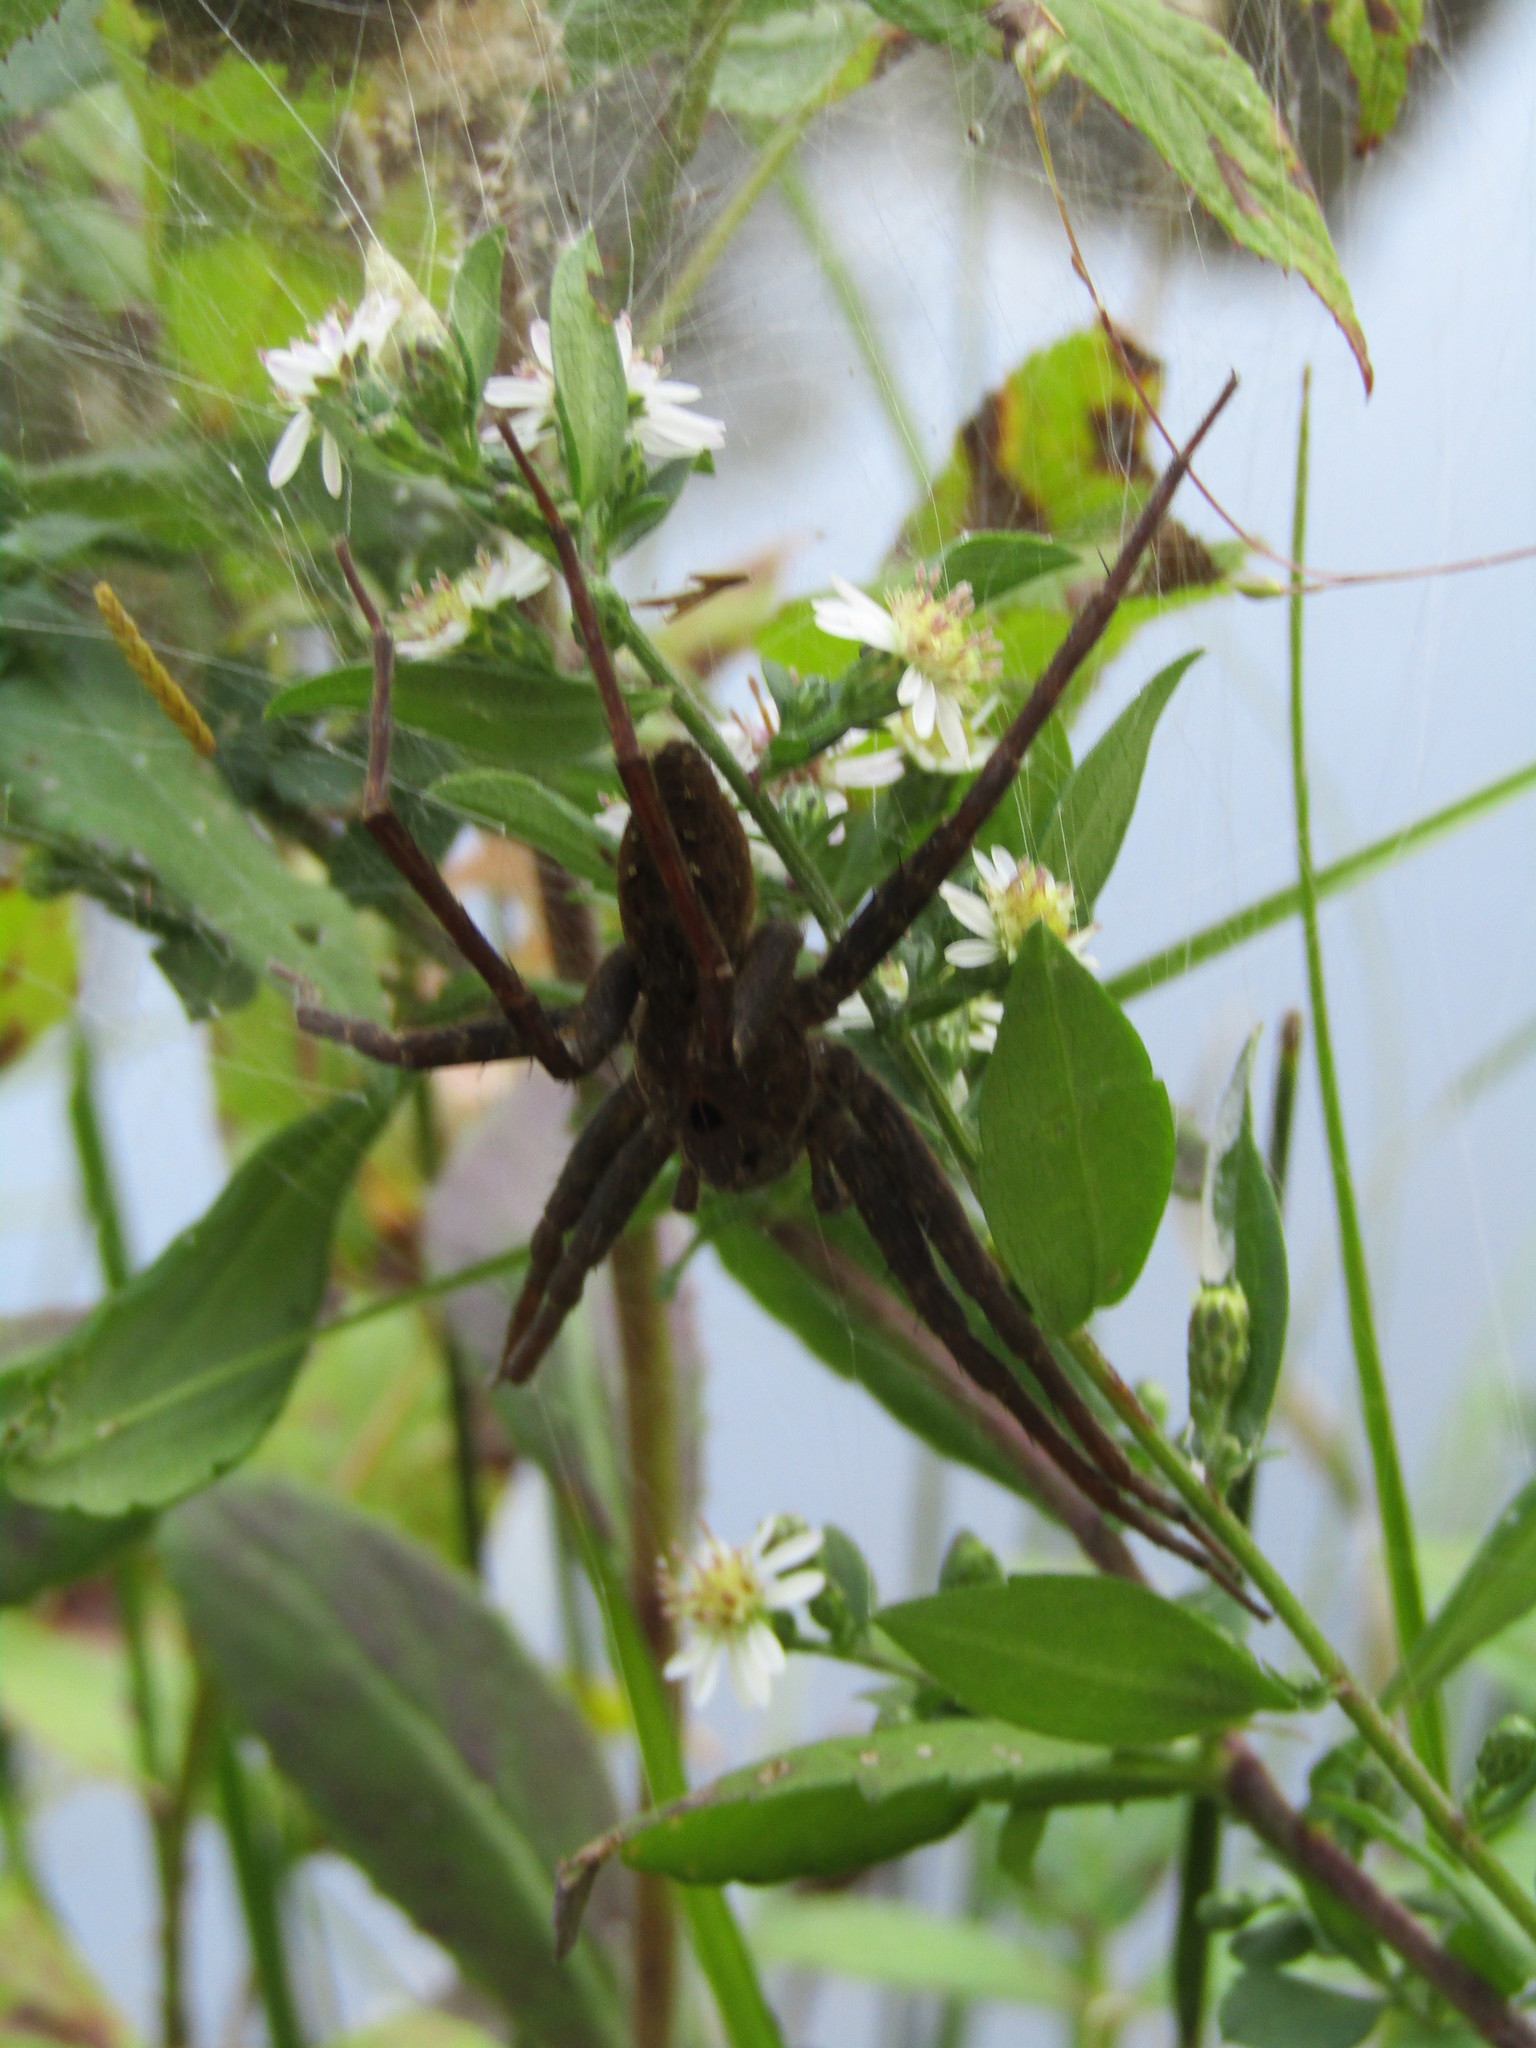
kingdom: Animalia
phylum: Arthropoda
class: Arachnida
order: Araneae
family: Pisauridae
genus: Dolomedes
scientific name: Dolomedes vittatus
